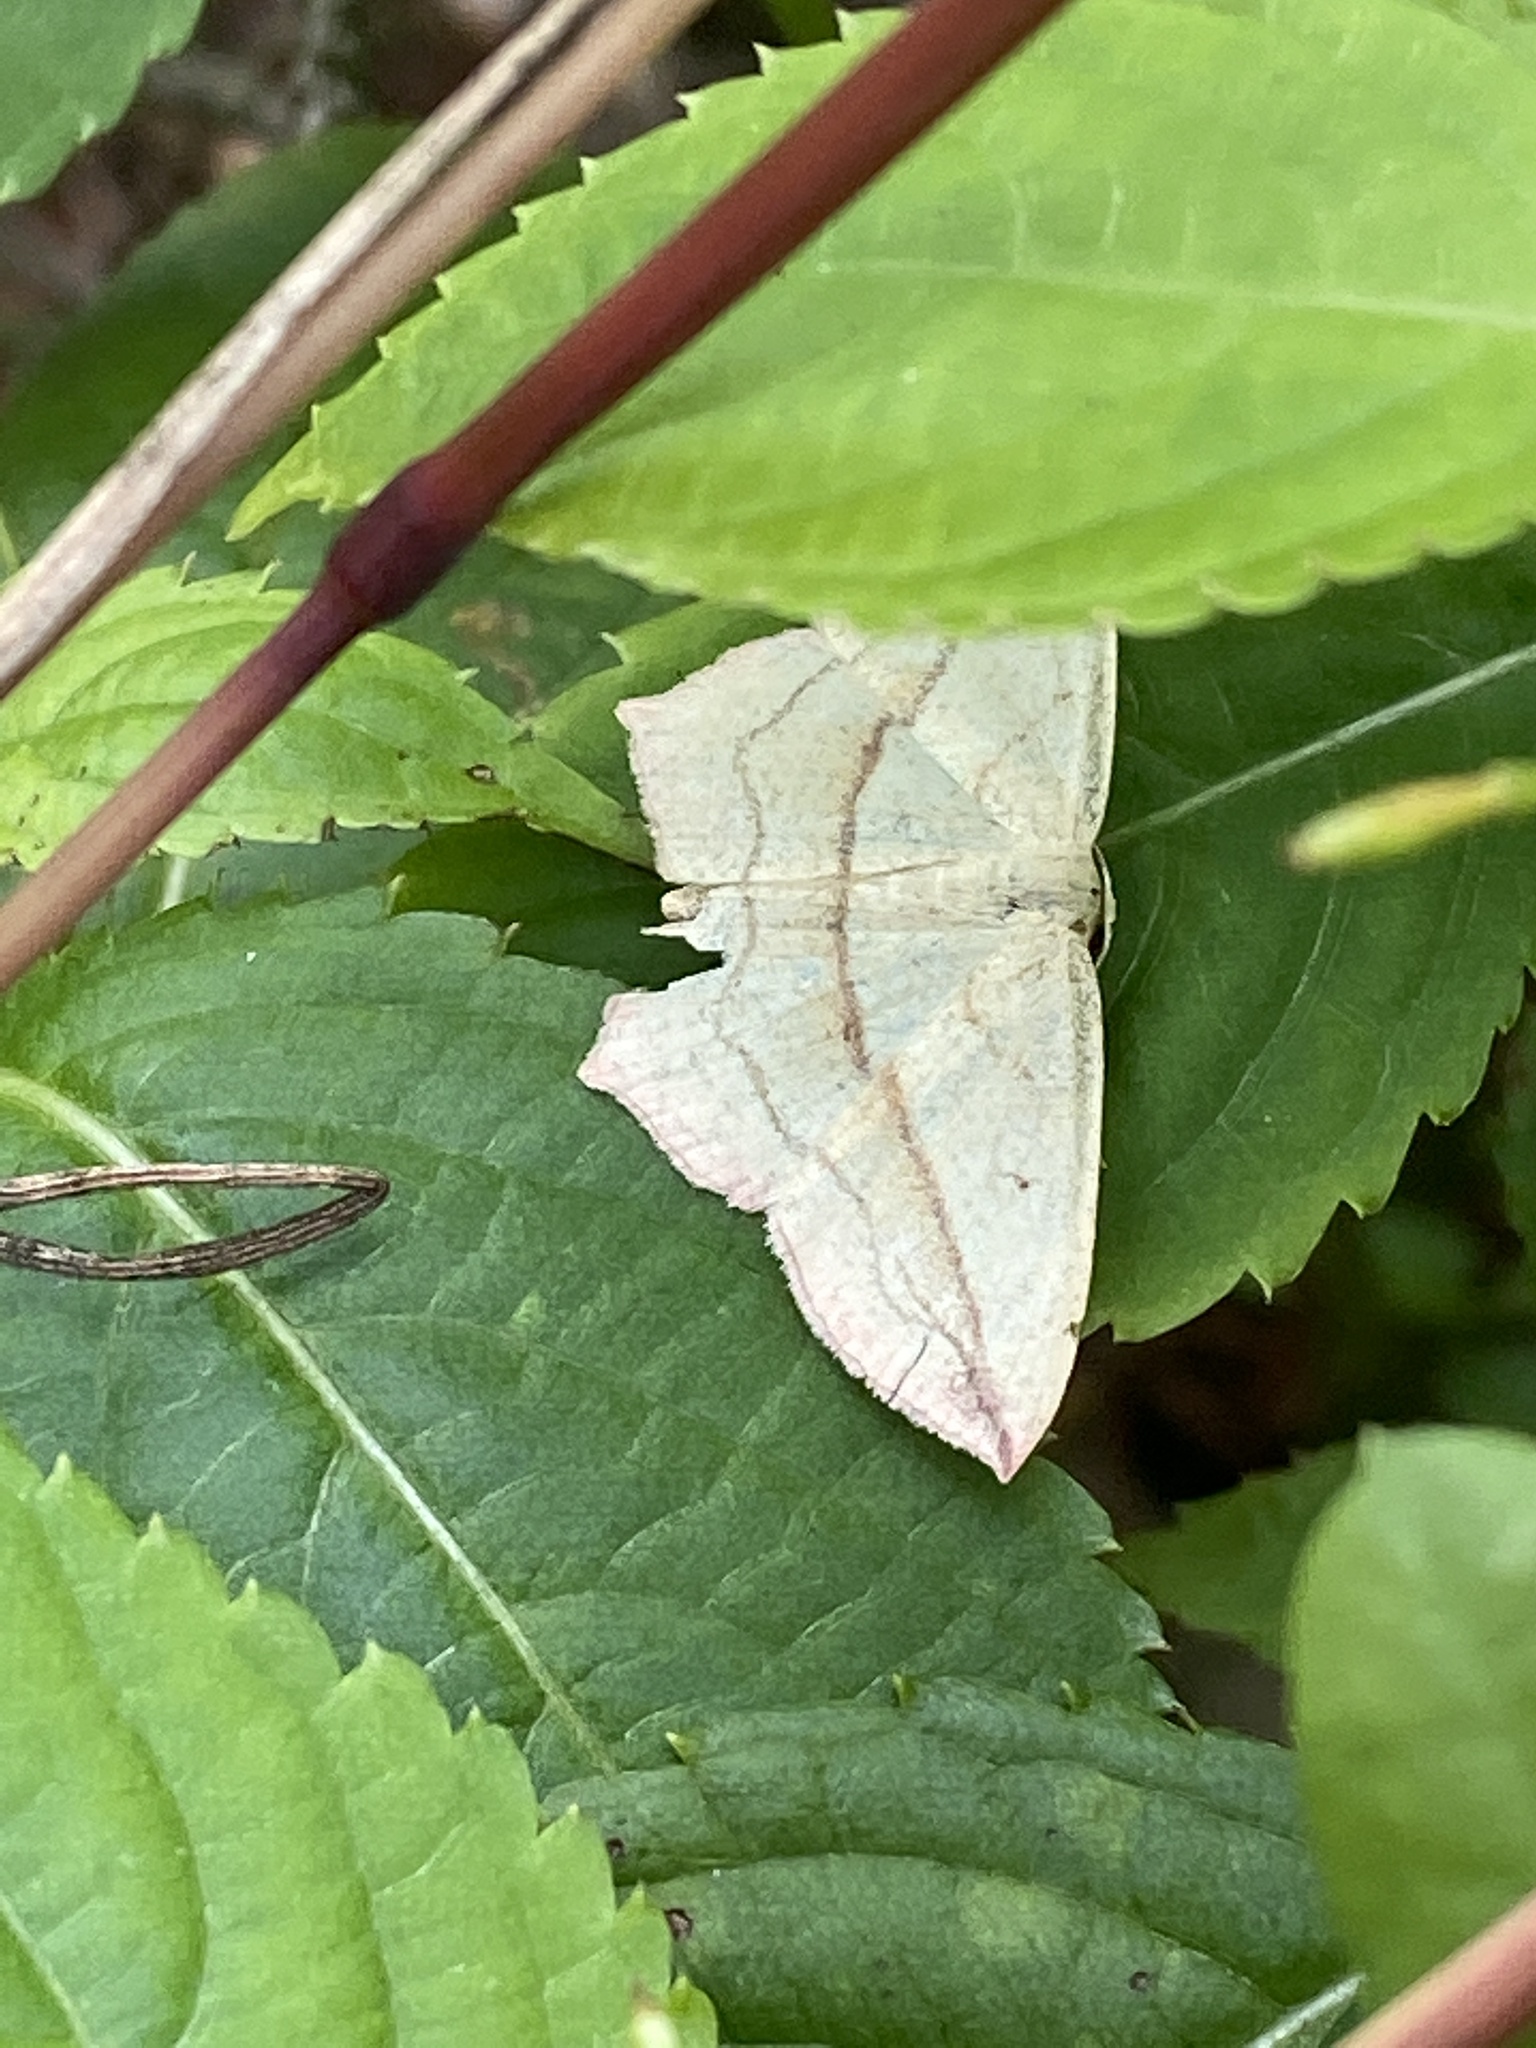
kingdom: Animalia
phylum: Arthropoda
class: Insecta
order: Lepidoptera
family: Geometridae
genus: Timandra
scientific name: Timandra comae
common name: Blood-vein
